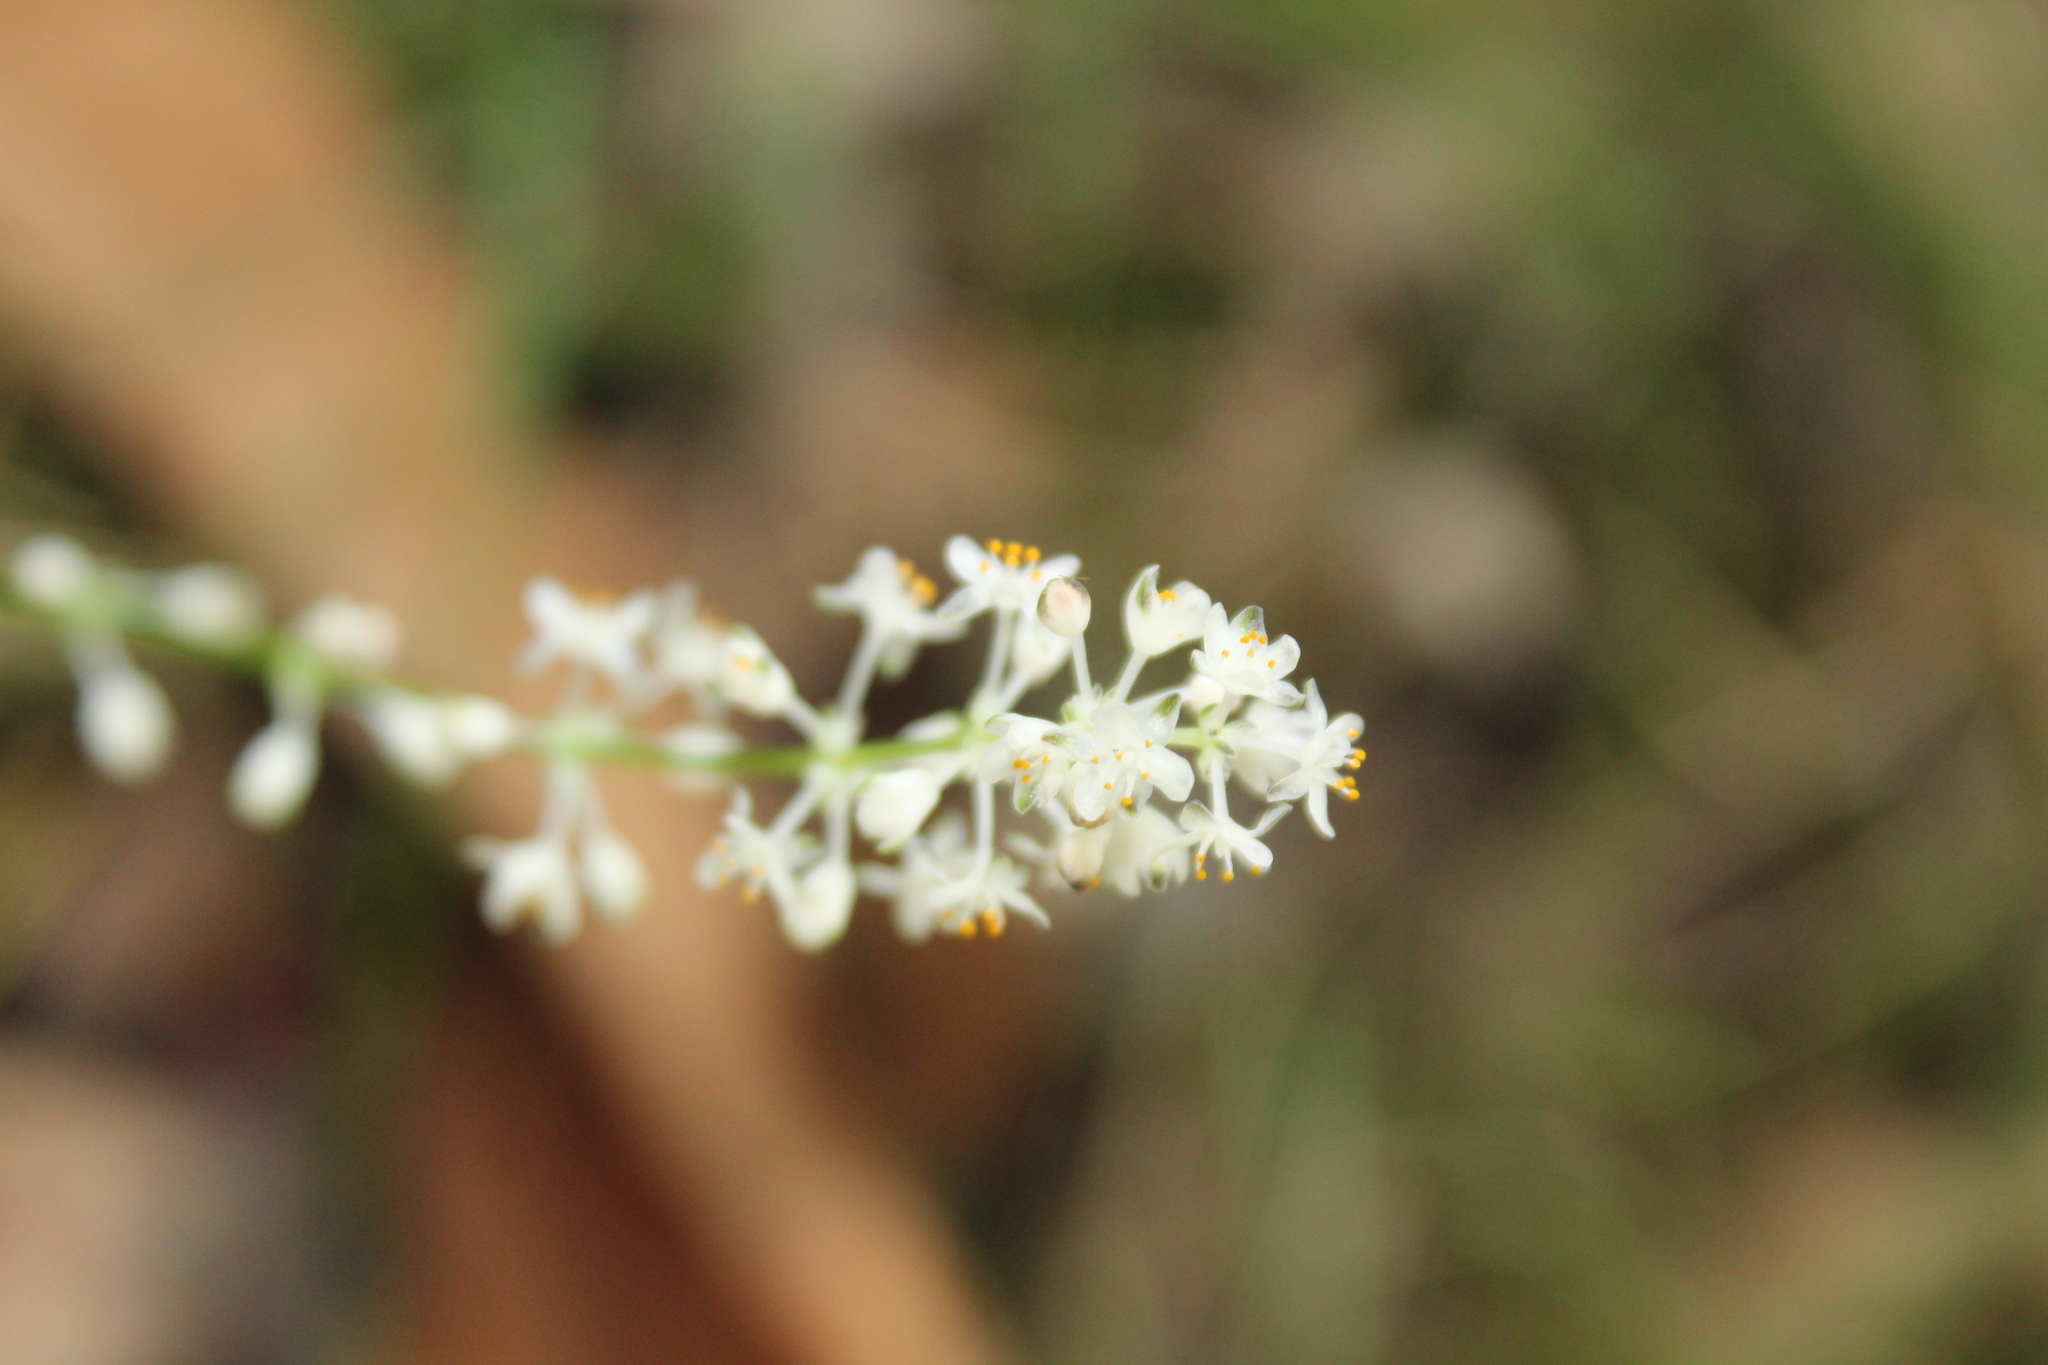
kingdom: Plantae
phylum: Tracheophyta
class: Liliopsida
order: Asparagales
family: Asparagaceae
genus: Lomandra
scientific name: Lomandra nigricans
